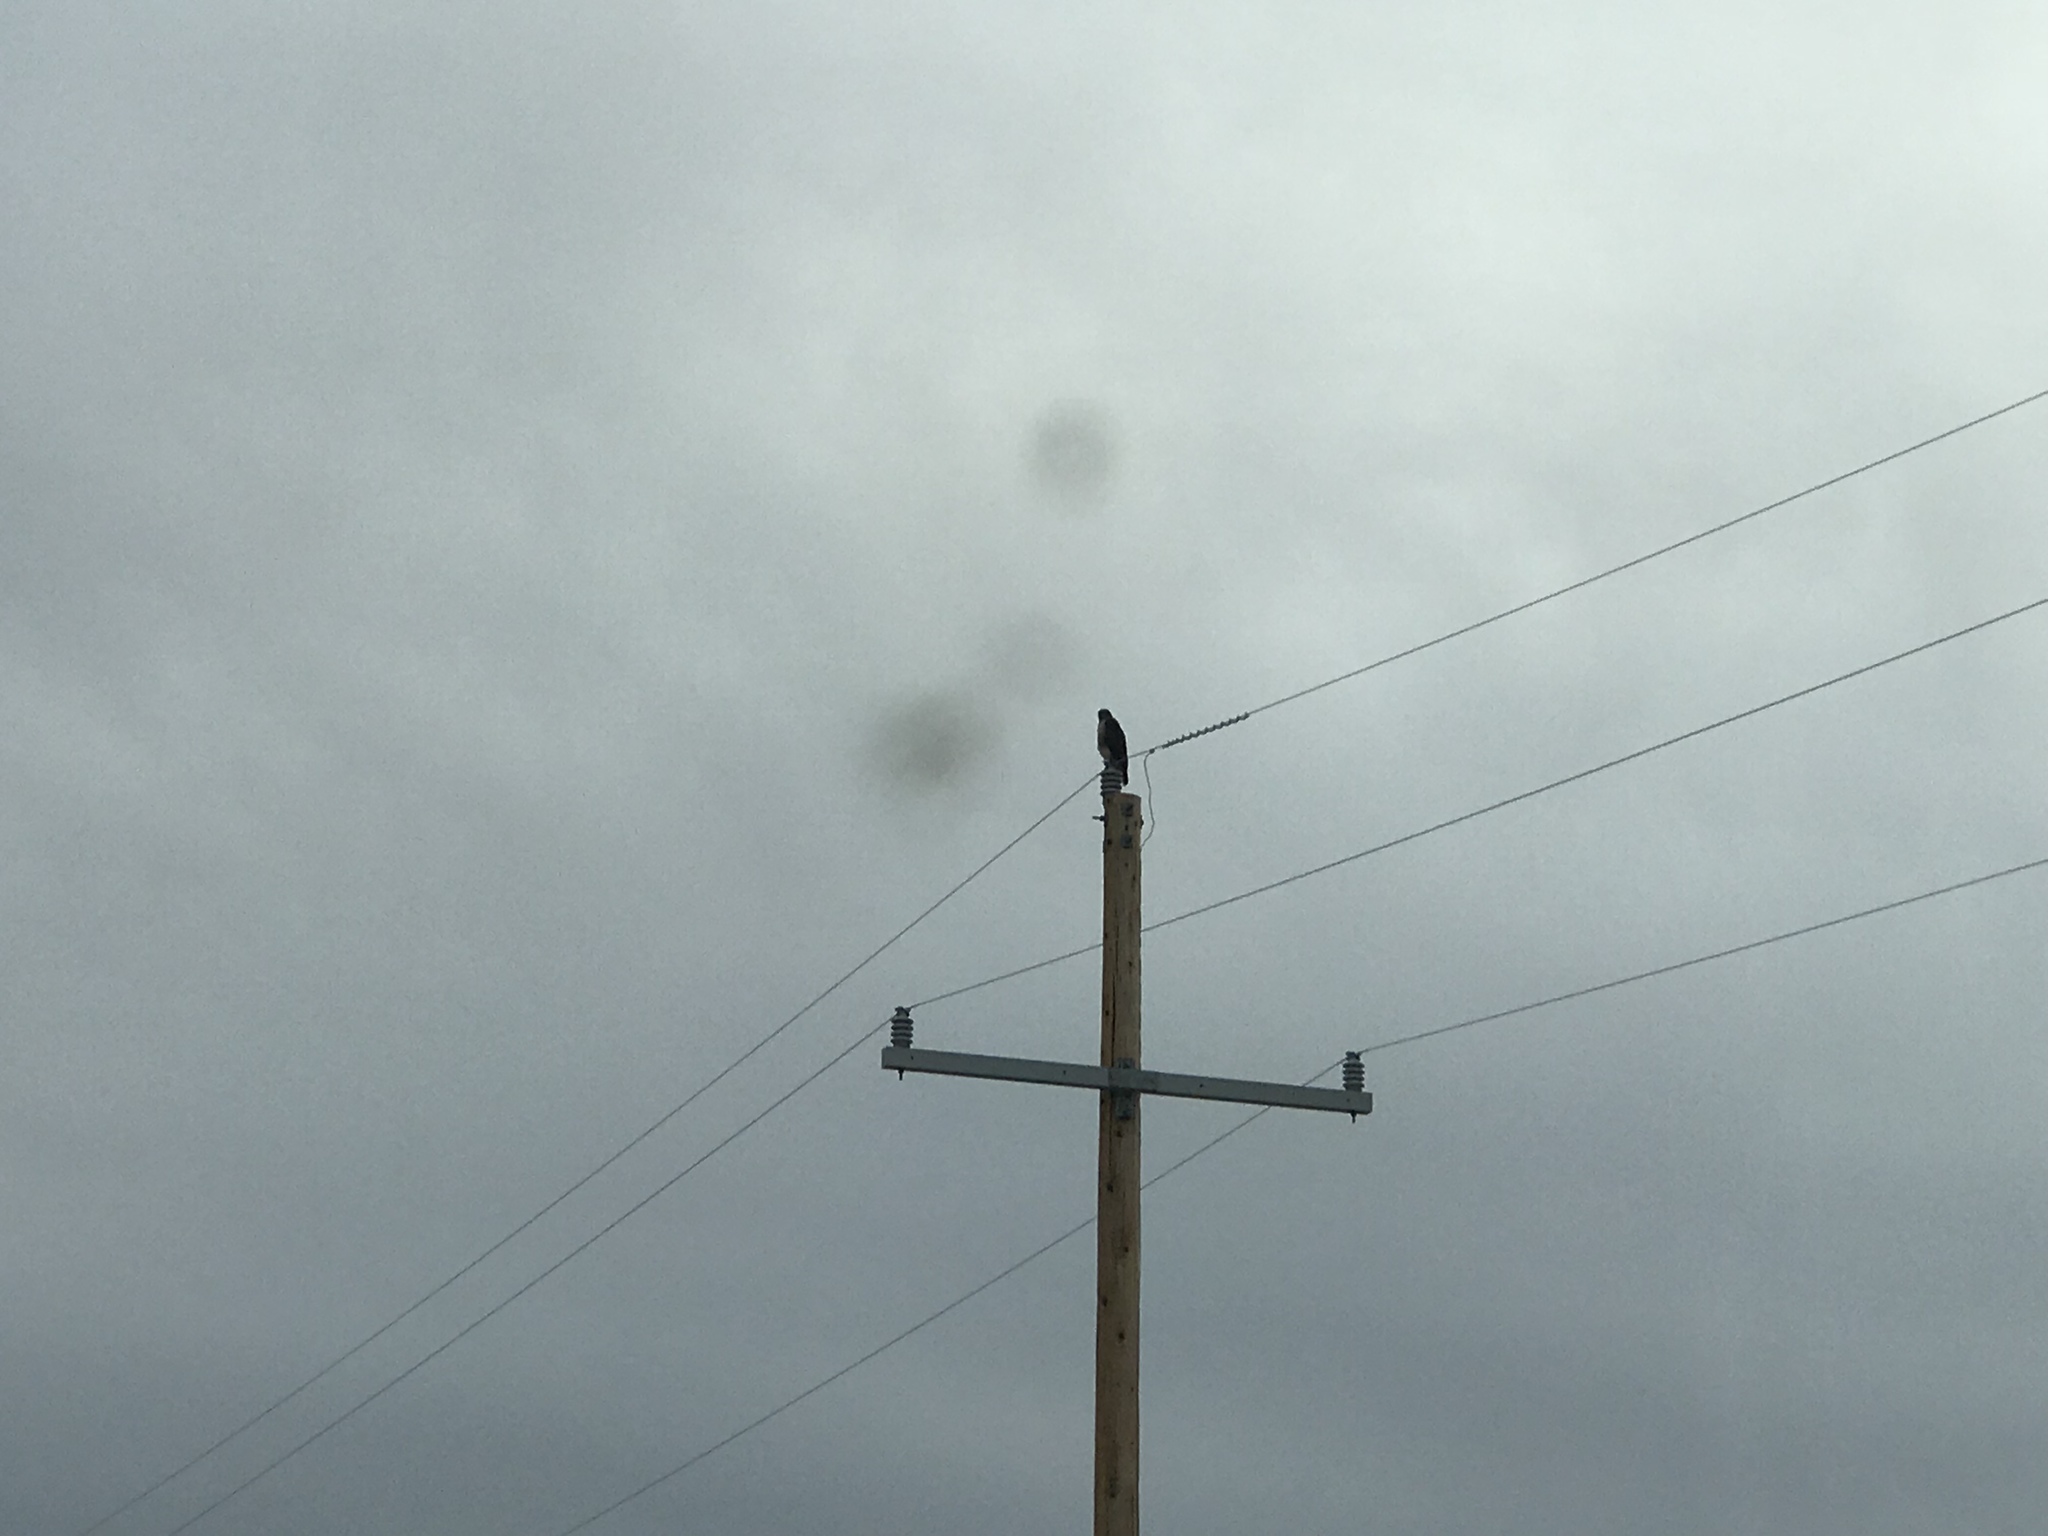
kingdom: Animalia
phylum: Chordata
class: Aves
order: Accipitriformes
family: Accipitridae
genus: Buteo
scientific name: Buteo jamaicensis
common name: Red-tailed hawk
